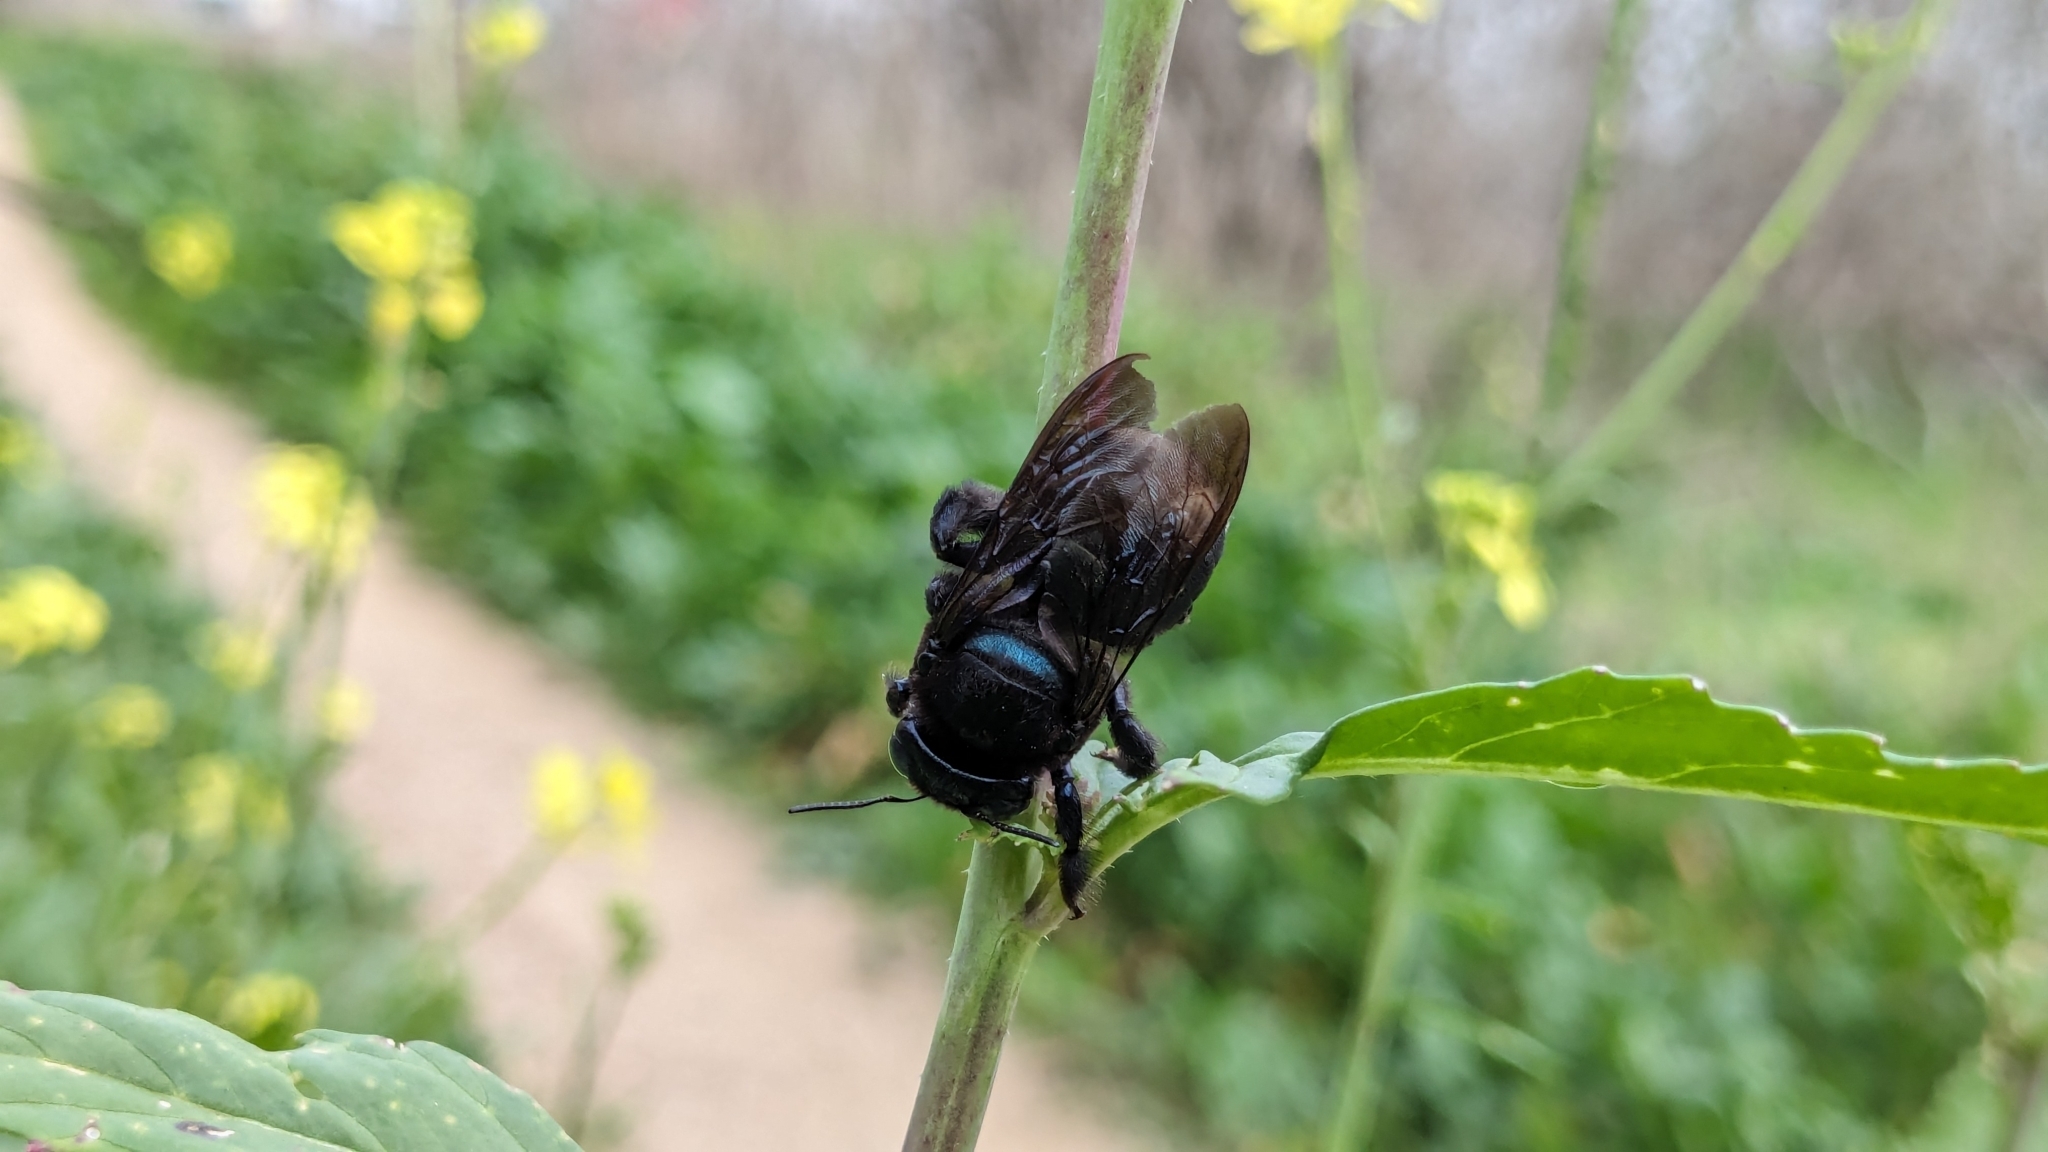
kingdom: Animalia
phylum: Arthropoda
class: Insecta
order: Hymenoptera
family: Apidae
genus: Xylocopa
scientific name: Xylocopa micans
